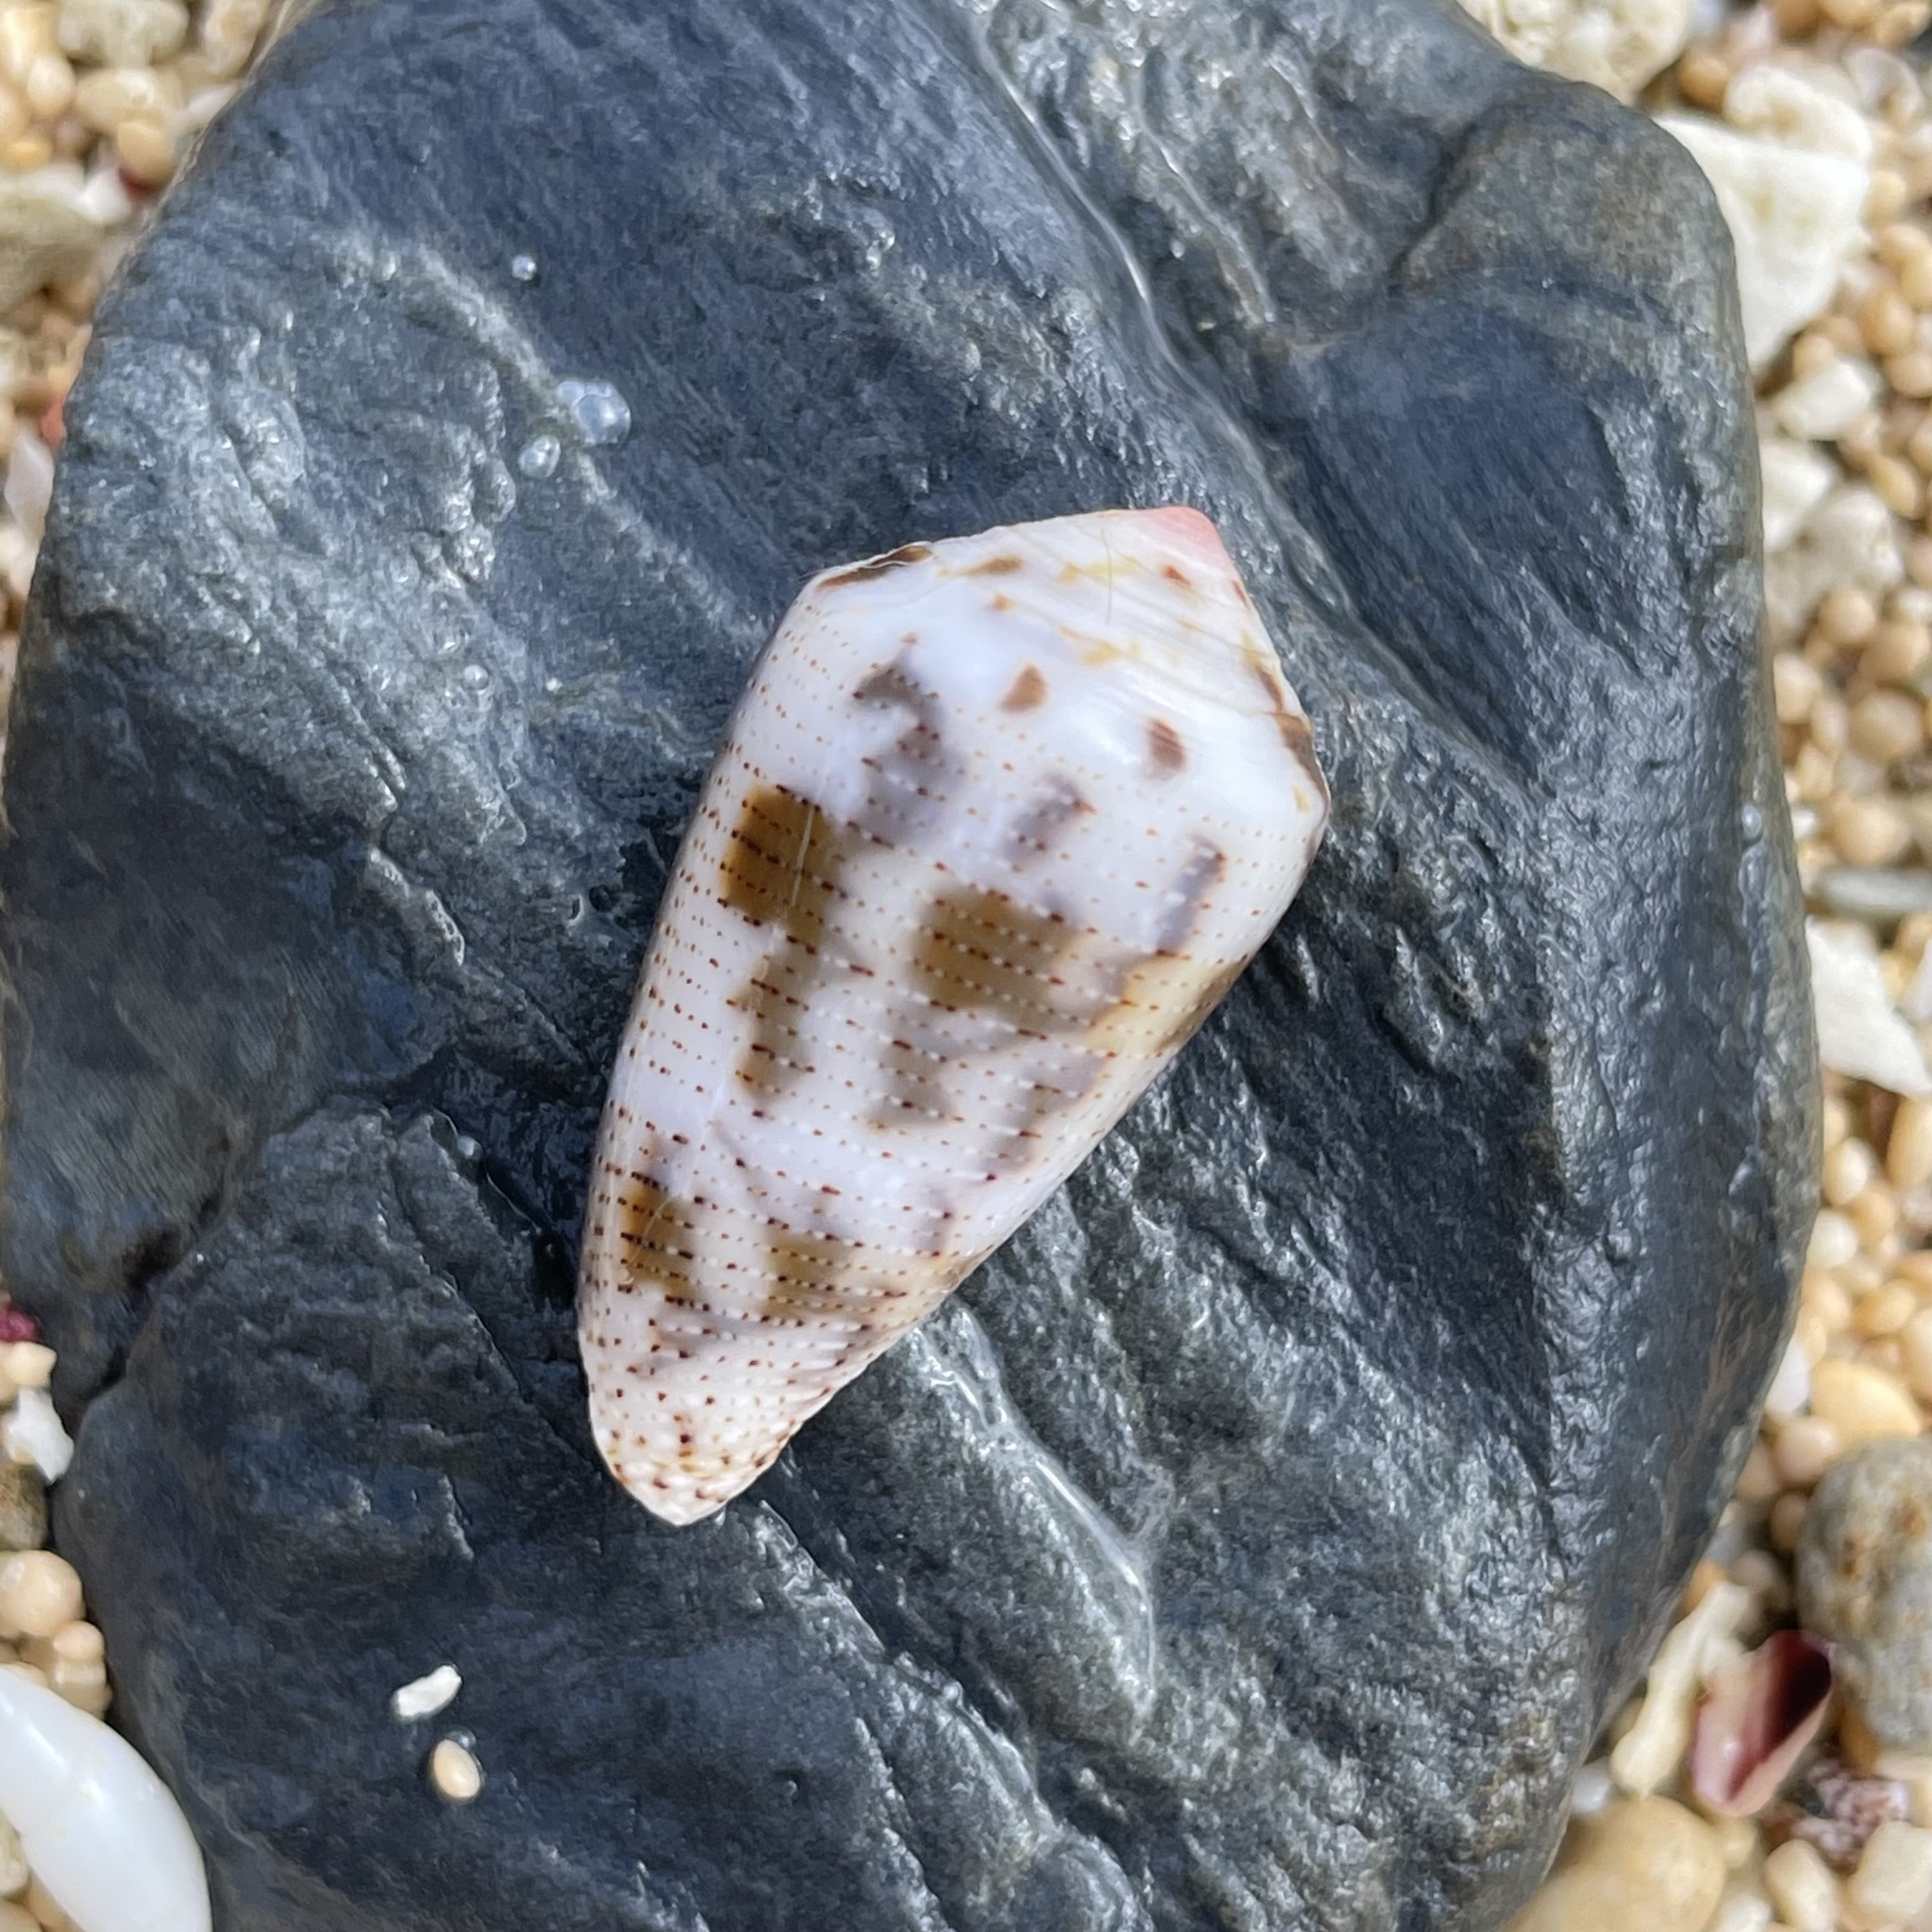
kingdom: Animalia
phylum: Mollusca
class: Gastropoda
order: Neogastropoda
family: Conidae
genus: Conus
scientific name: Conus striolatus
